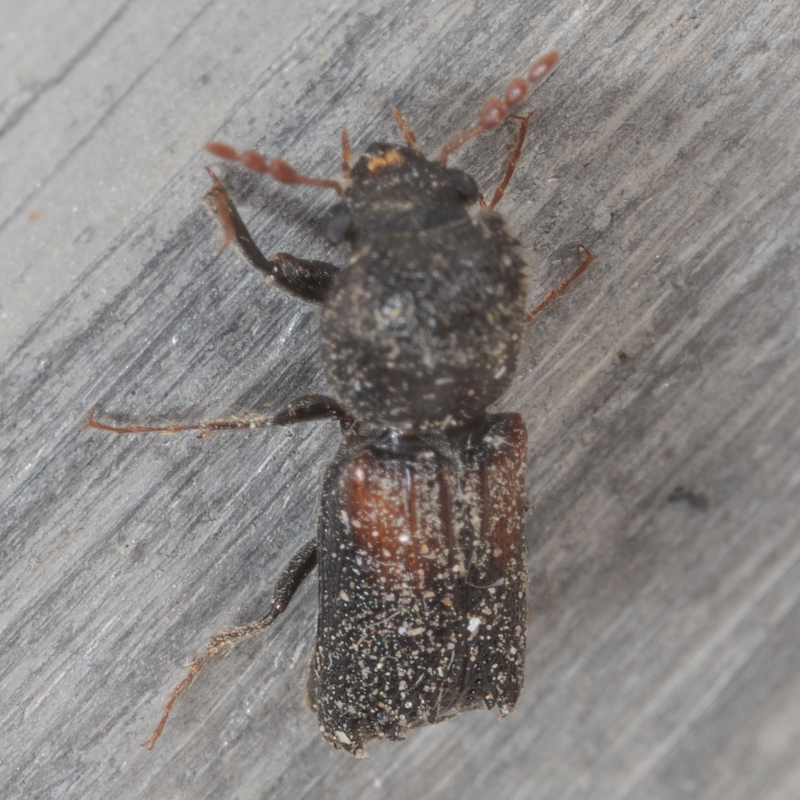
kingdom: Animalia
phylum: Arthropoda
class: Insecta
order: Coleoptera
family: Bostrichidae
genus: Xylobiops
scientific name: Xylobiops basilaris
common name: Red-shouldered bostrichid
